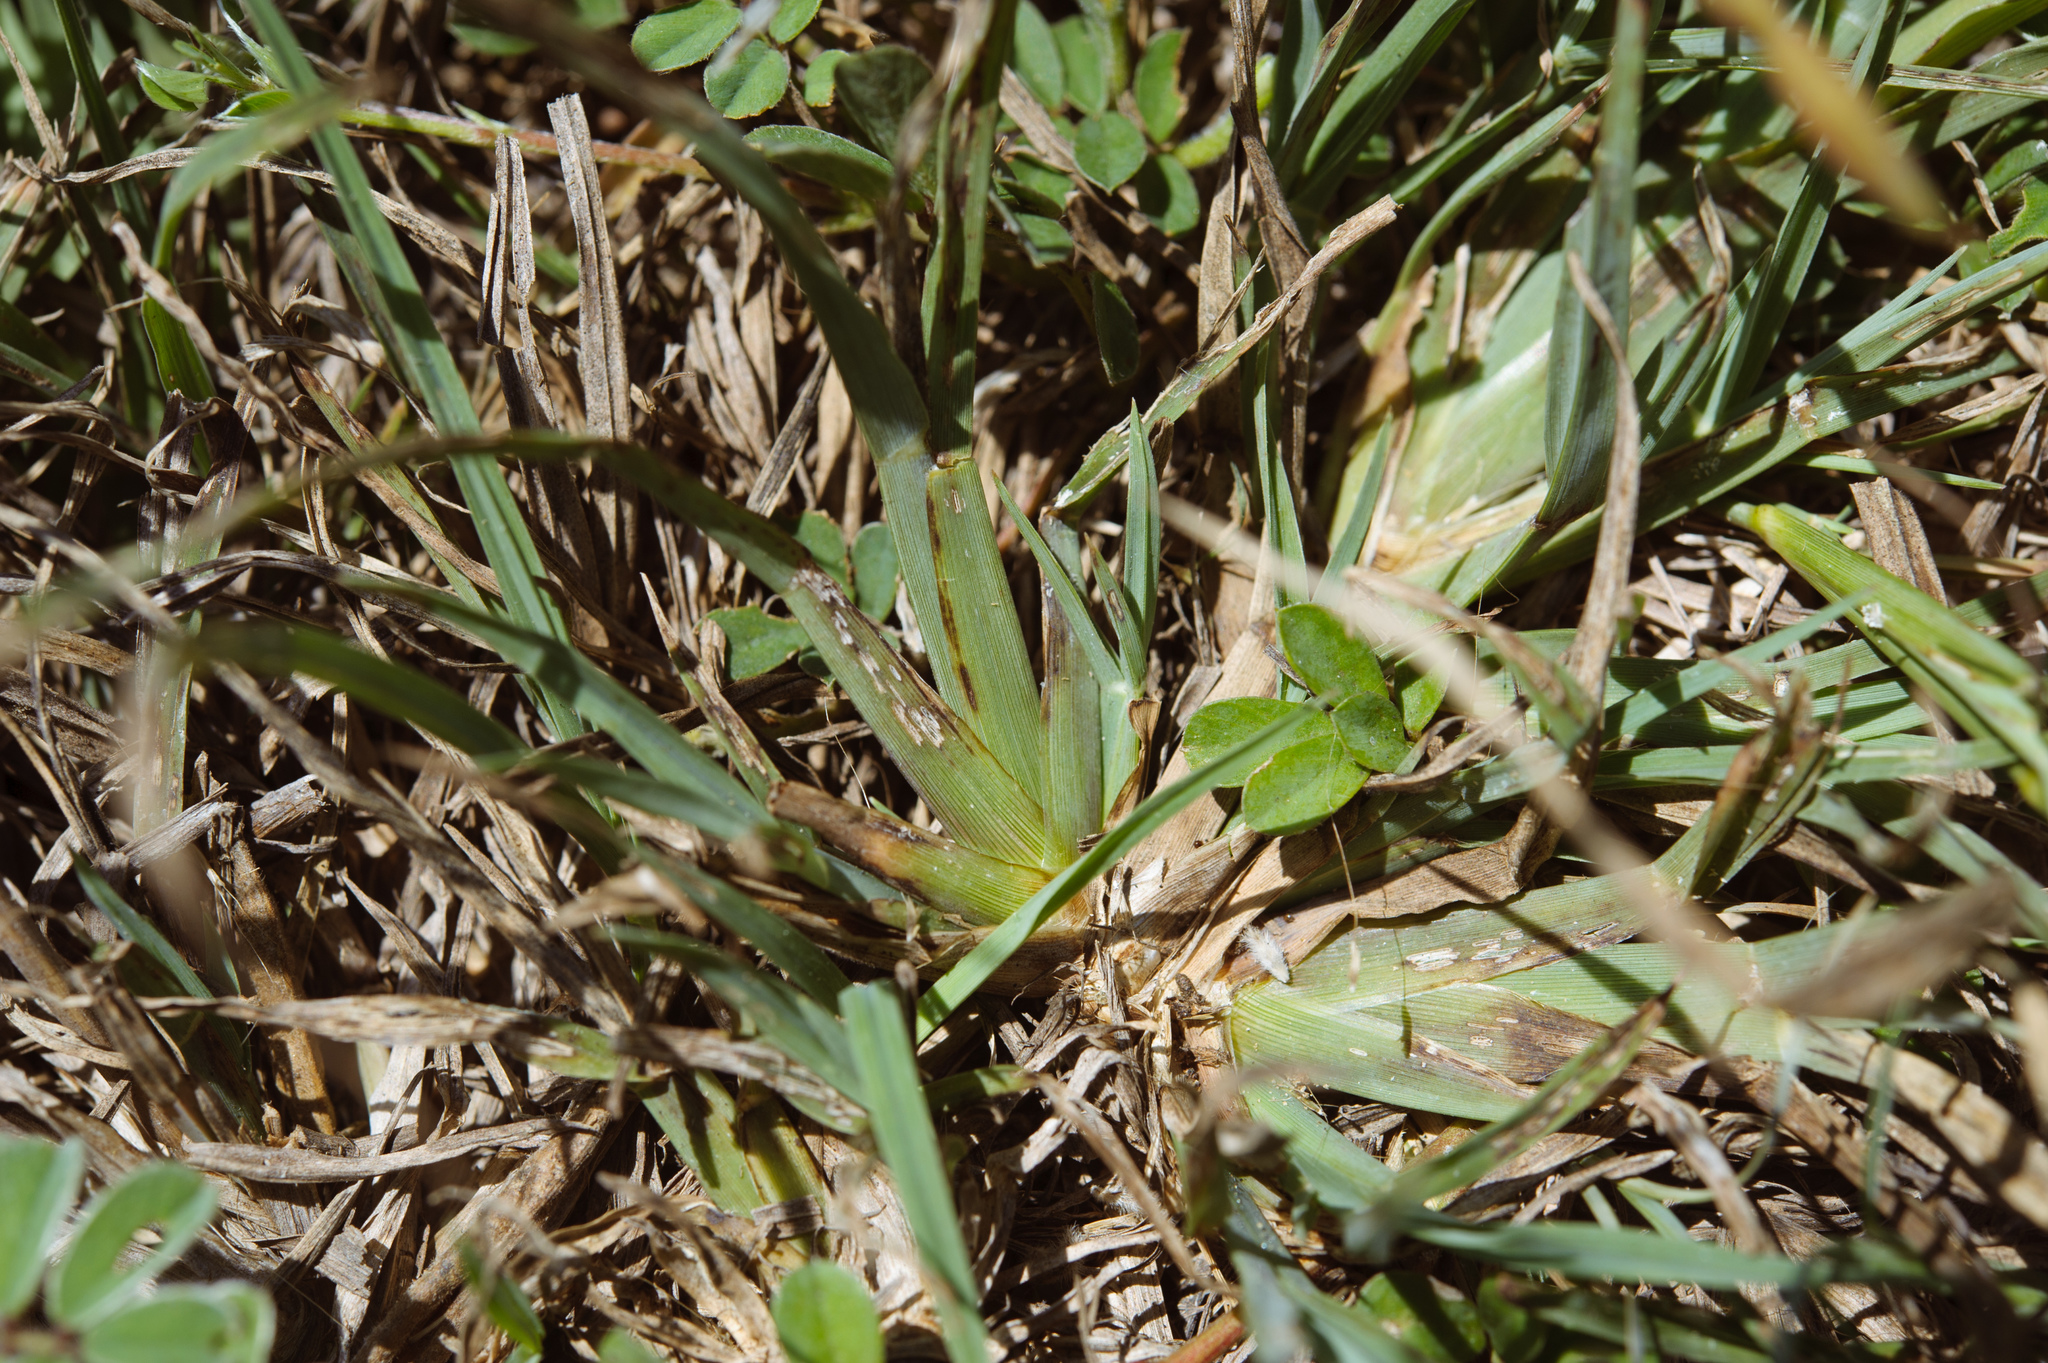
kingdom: Plantae
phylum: Tracheophyta
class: Liliopsida
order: Poales
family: Poaceae
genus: Chloris
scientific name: Chloris divaricata
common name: Spreading windmill grass
